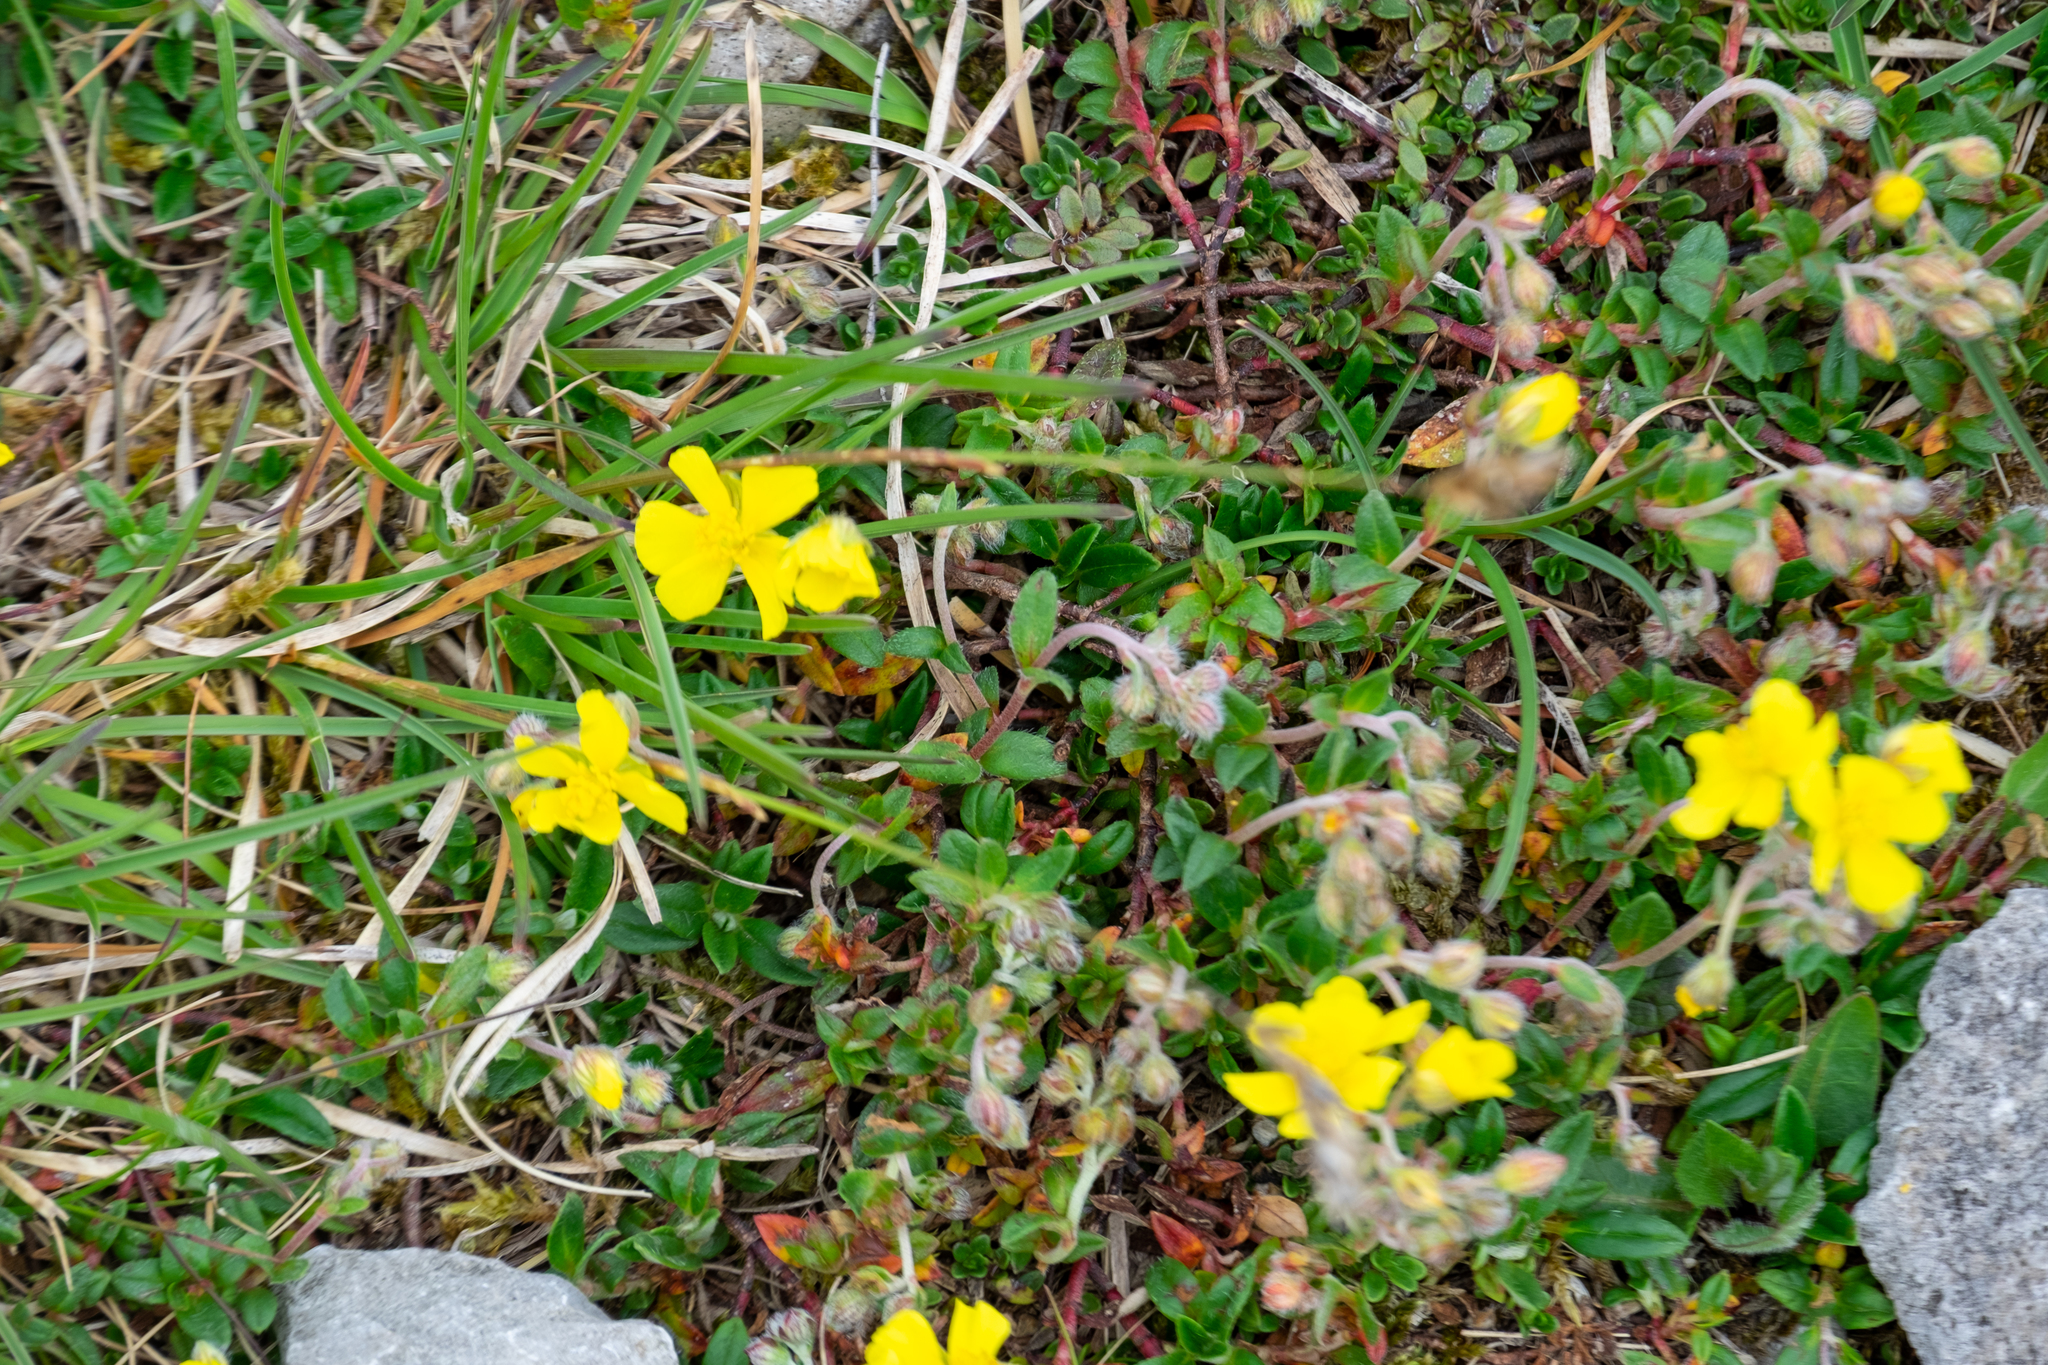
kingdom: Plantae
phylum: Tracheophyta
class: Magnoliopsida
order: Malvales
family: Cistaceae
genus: Helianthemum
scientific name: Helianthemum canum
